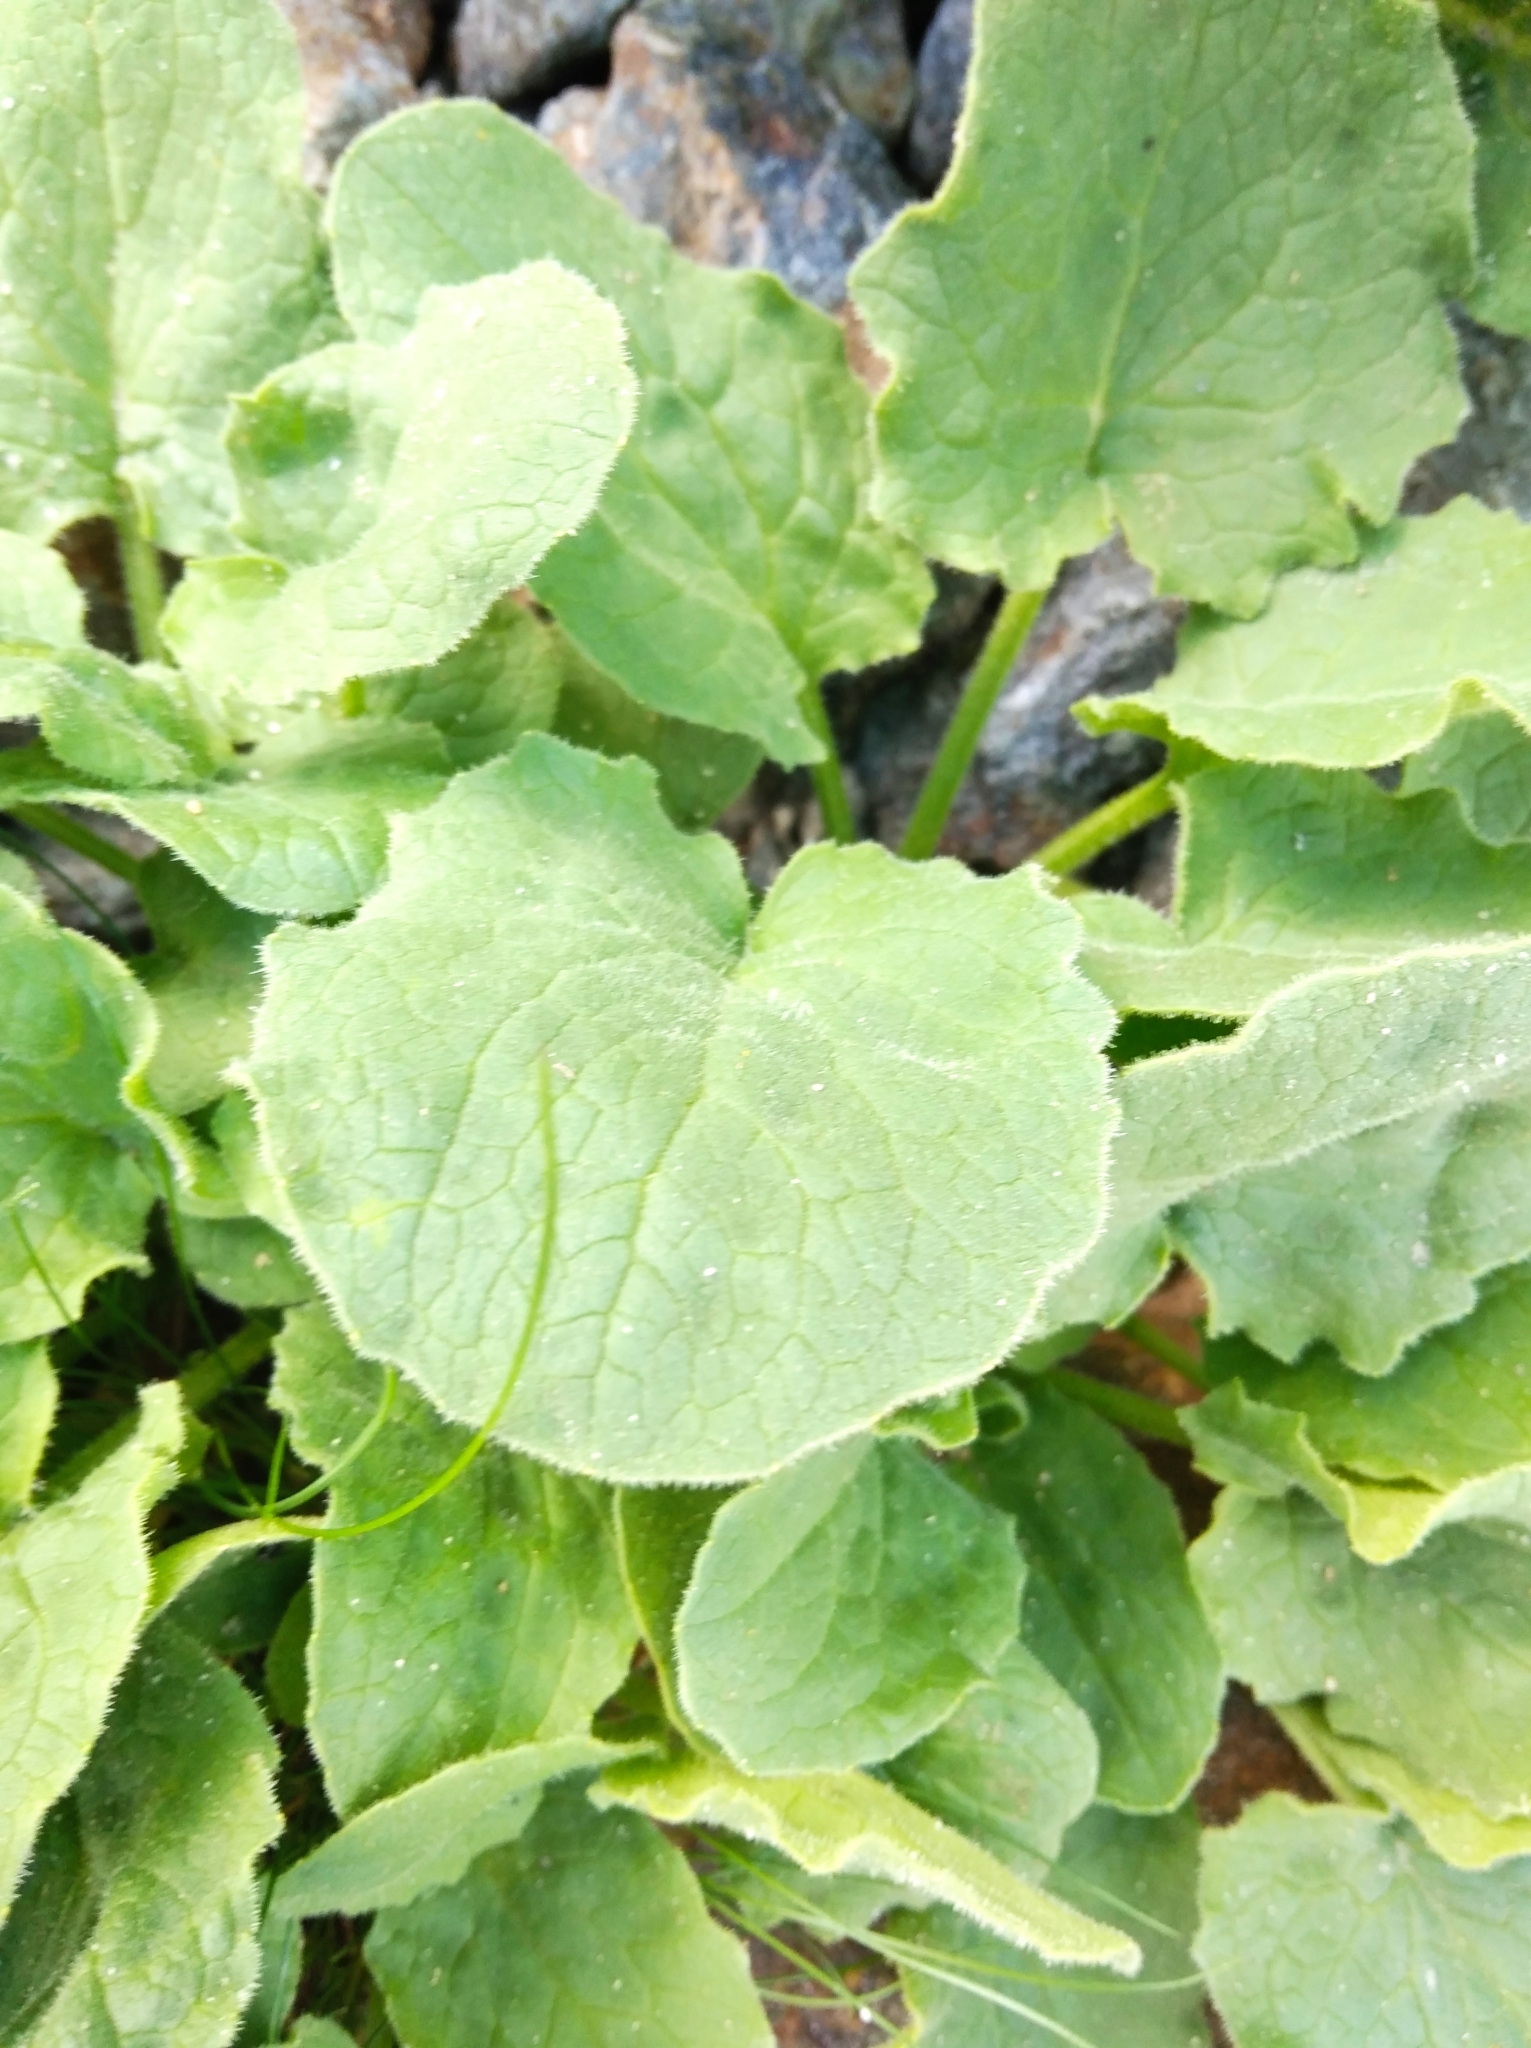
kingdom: Plantae
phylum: Tracheophyta
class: Magnoliopsida
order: Asterales
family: Asteraceae
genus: Doronicum
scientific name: Doronicum grandiflorum
